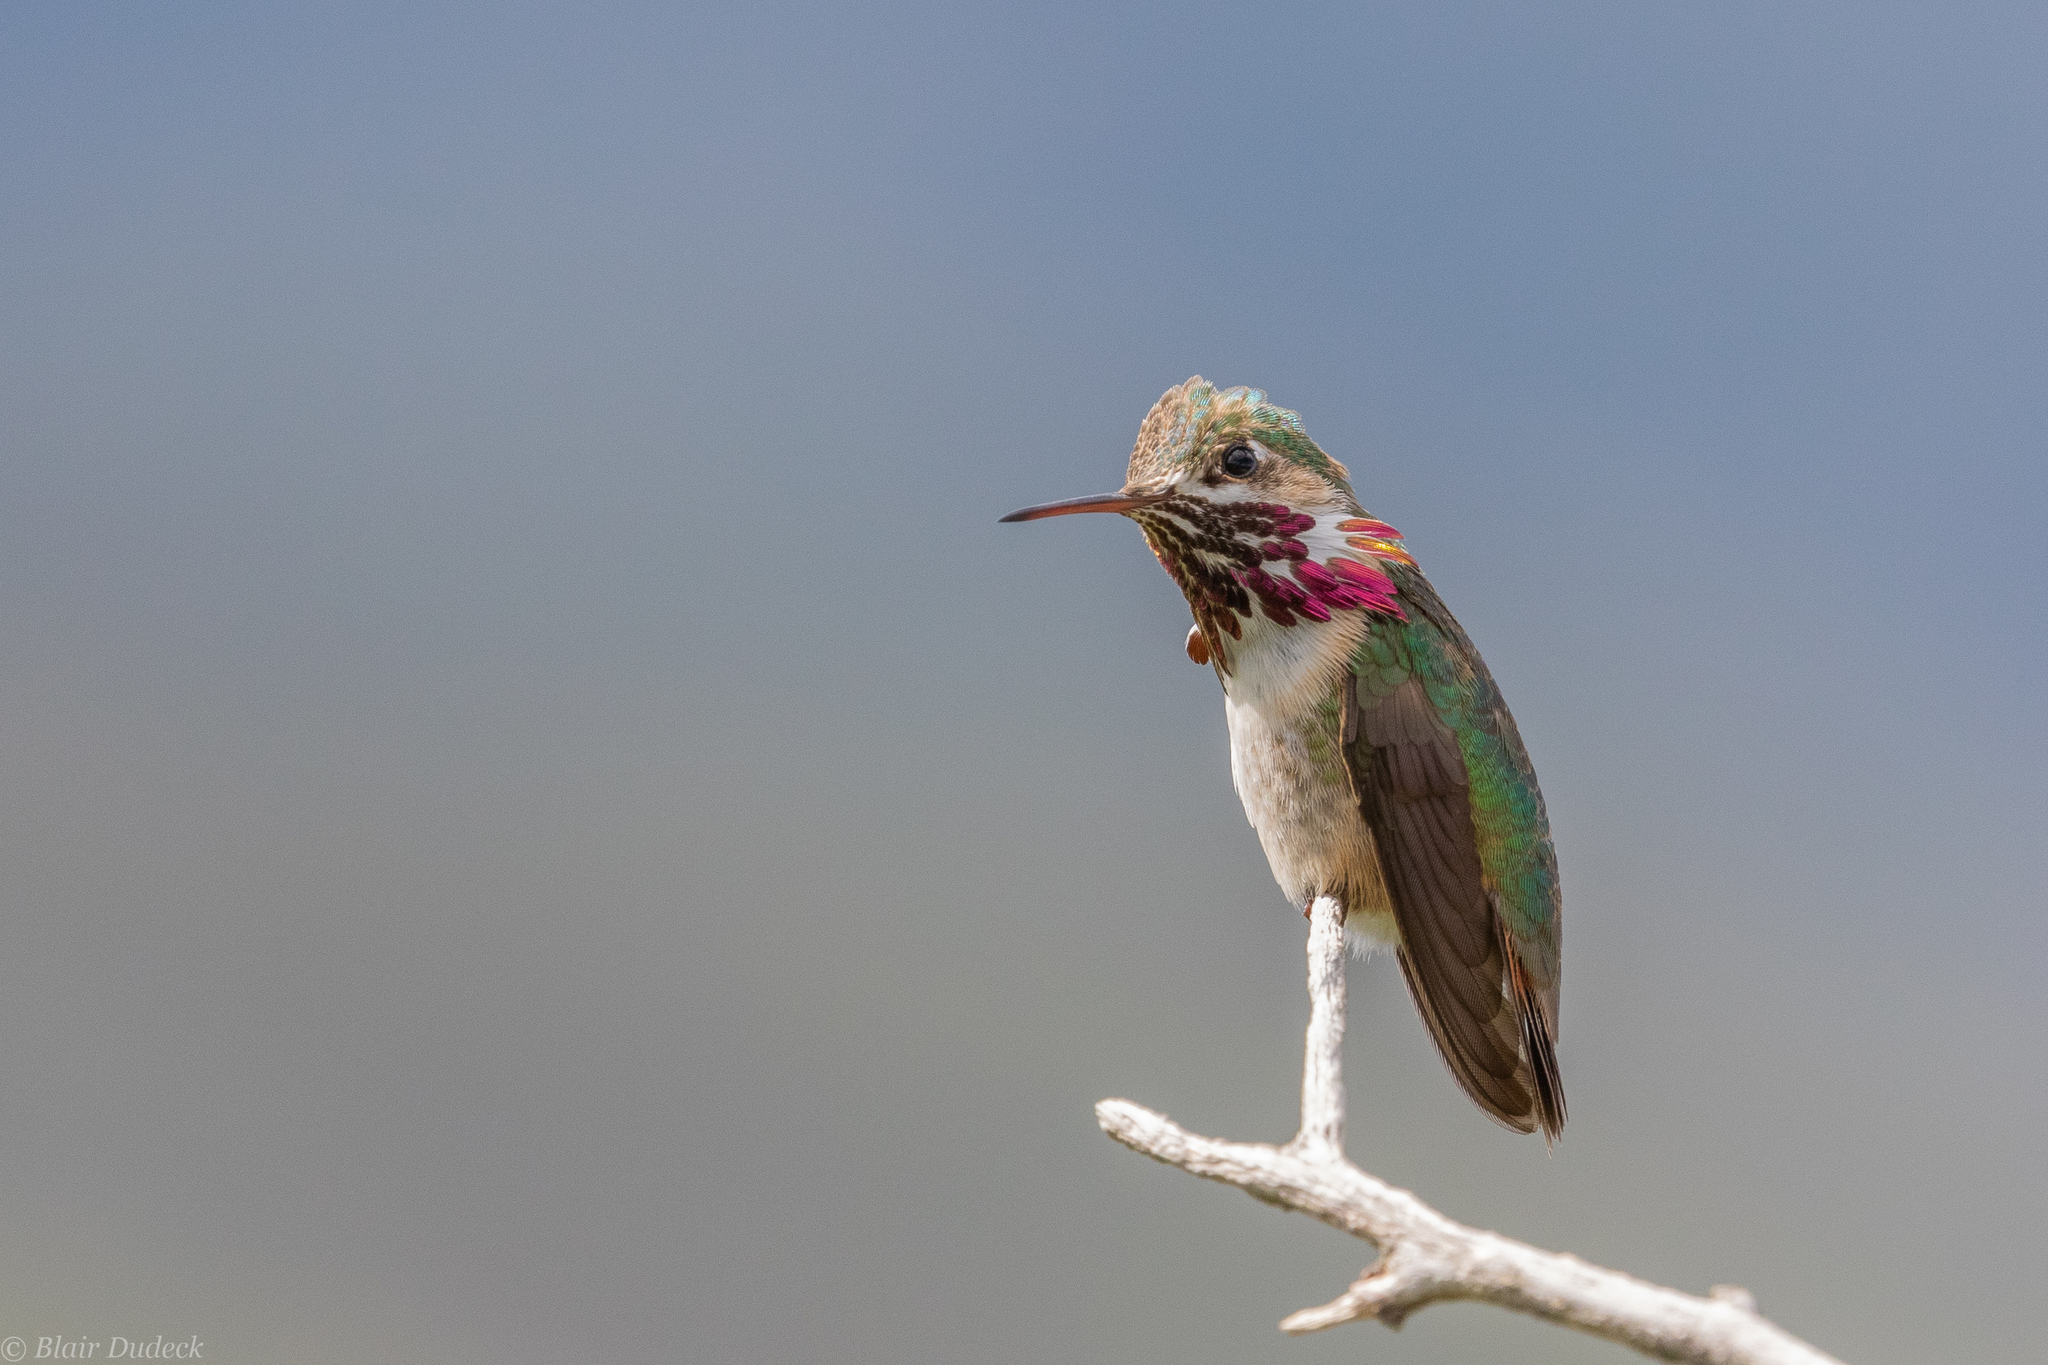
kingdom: Animalia
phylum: Chordata
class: Aves
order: Apodiformes
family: Trochilidae
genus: Selasphorus
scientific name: Selasphorus calliope
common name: Calliope hummingbird
